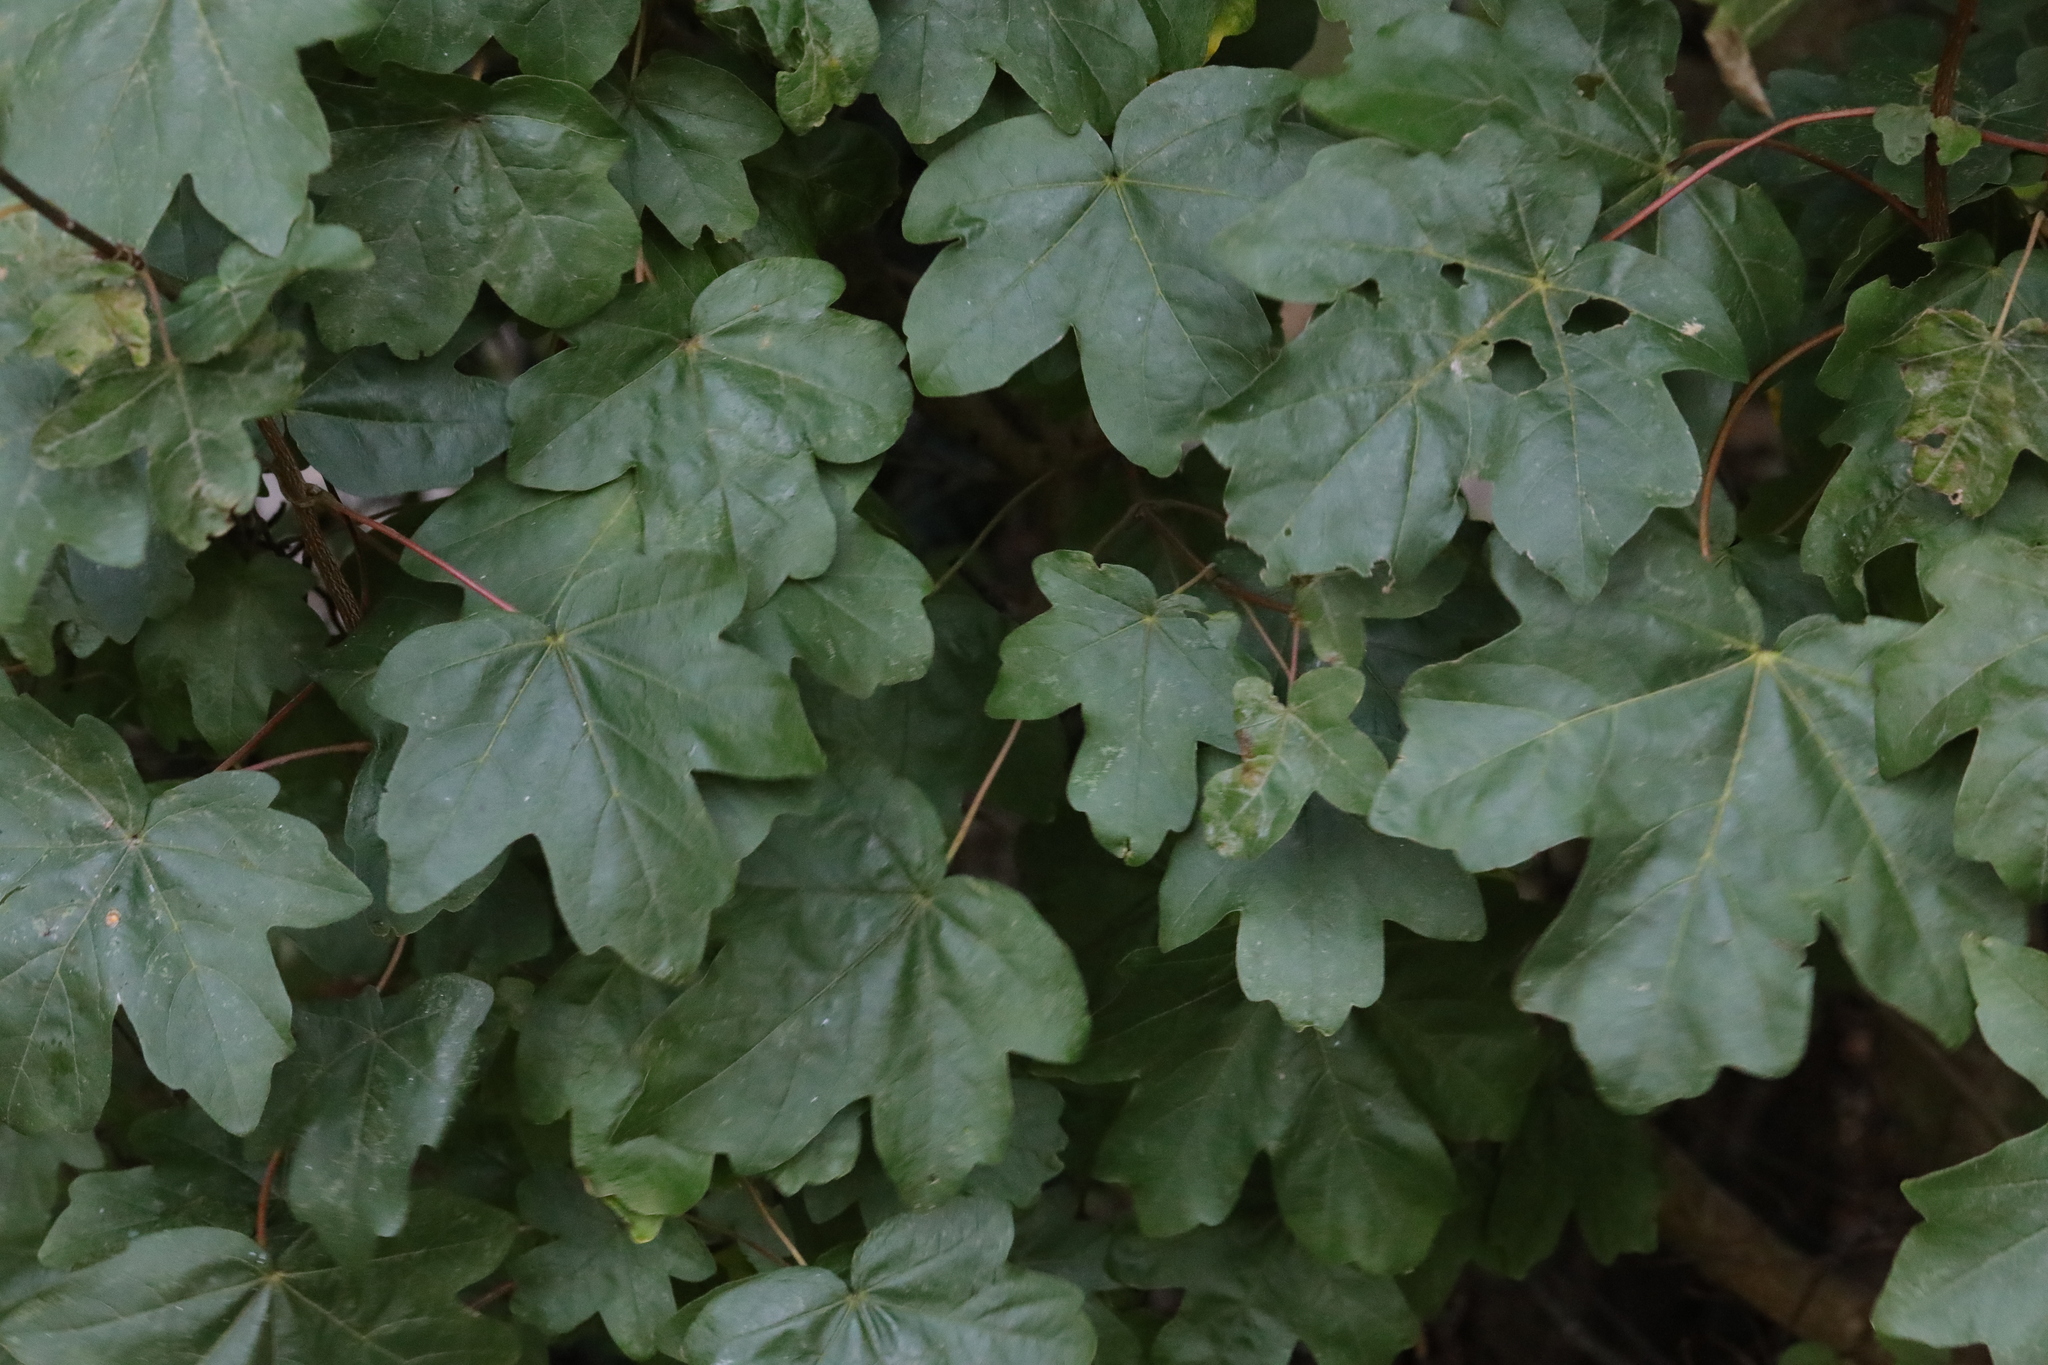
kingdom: Plantae
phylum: Tracheophyta
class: Magnoliopsida
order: Sapindales
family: Sapindaceae
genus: Acer
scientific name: Acer campestre
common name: Field maple
